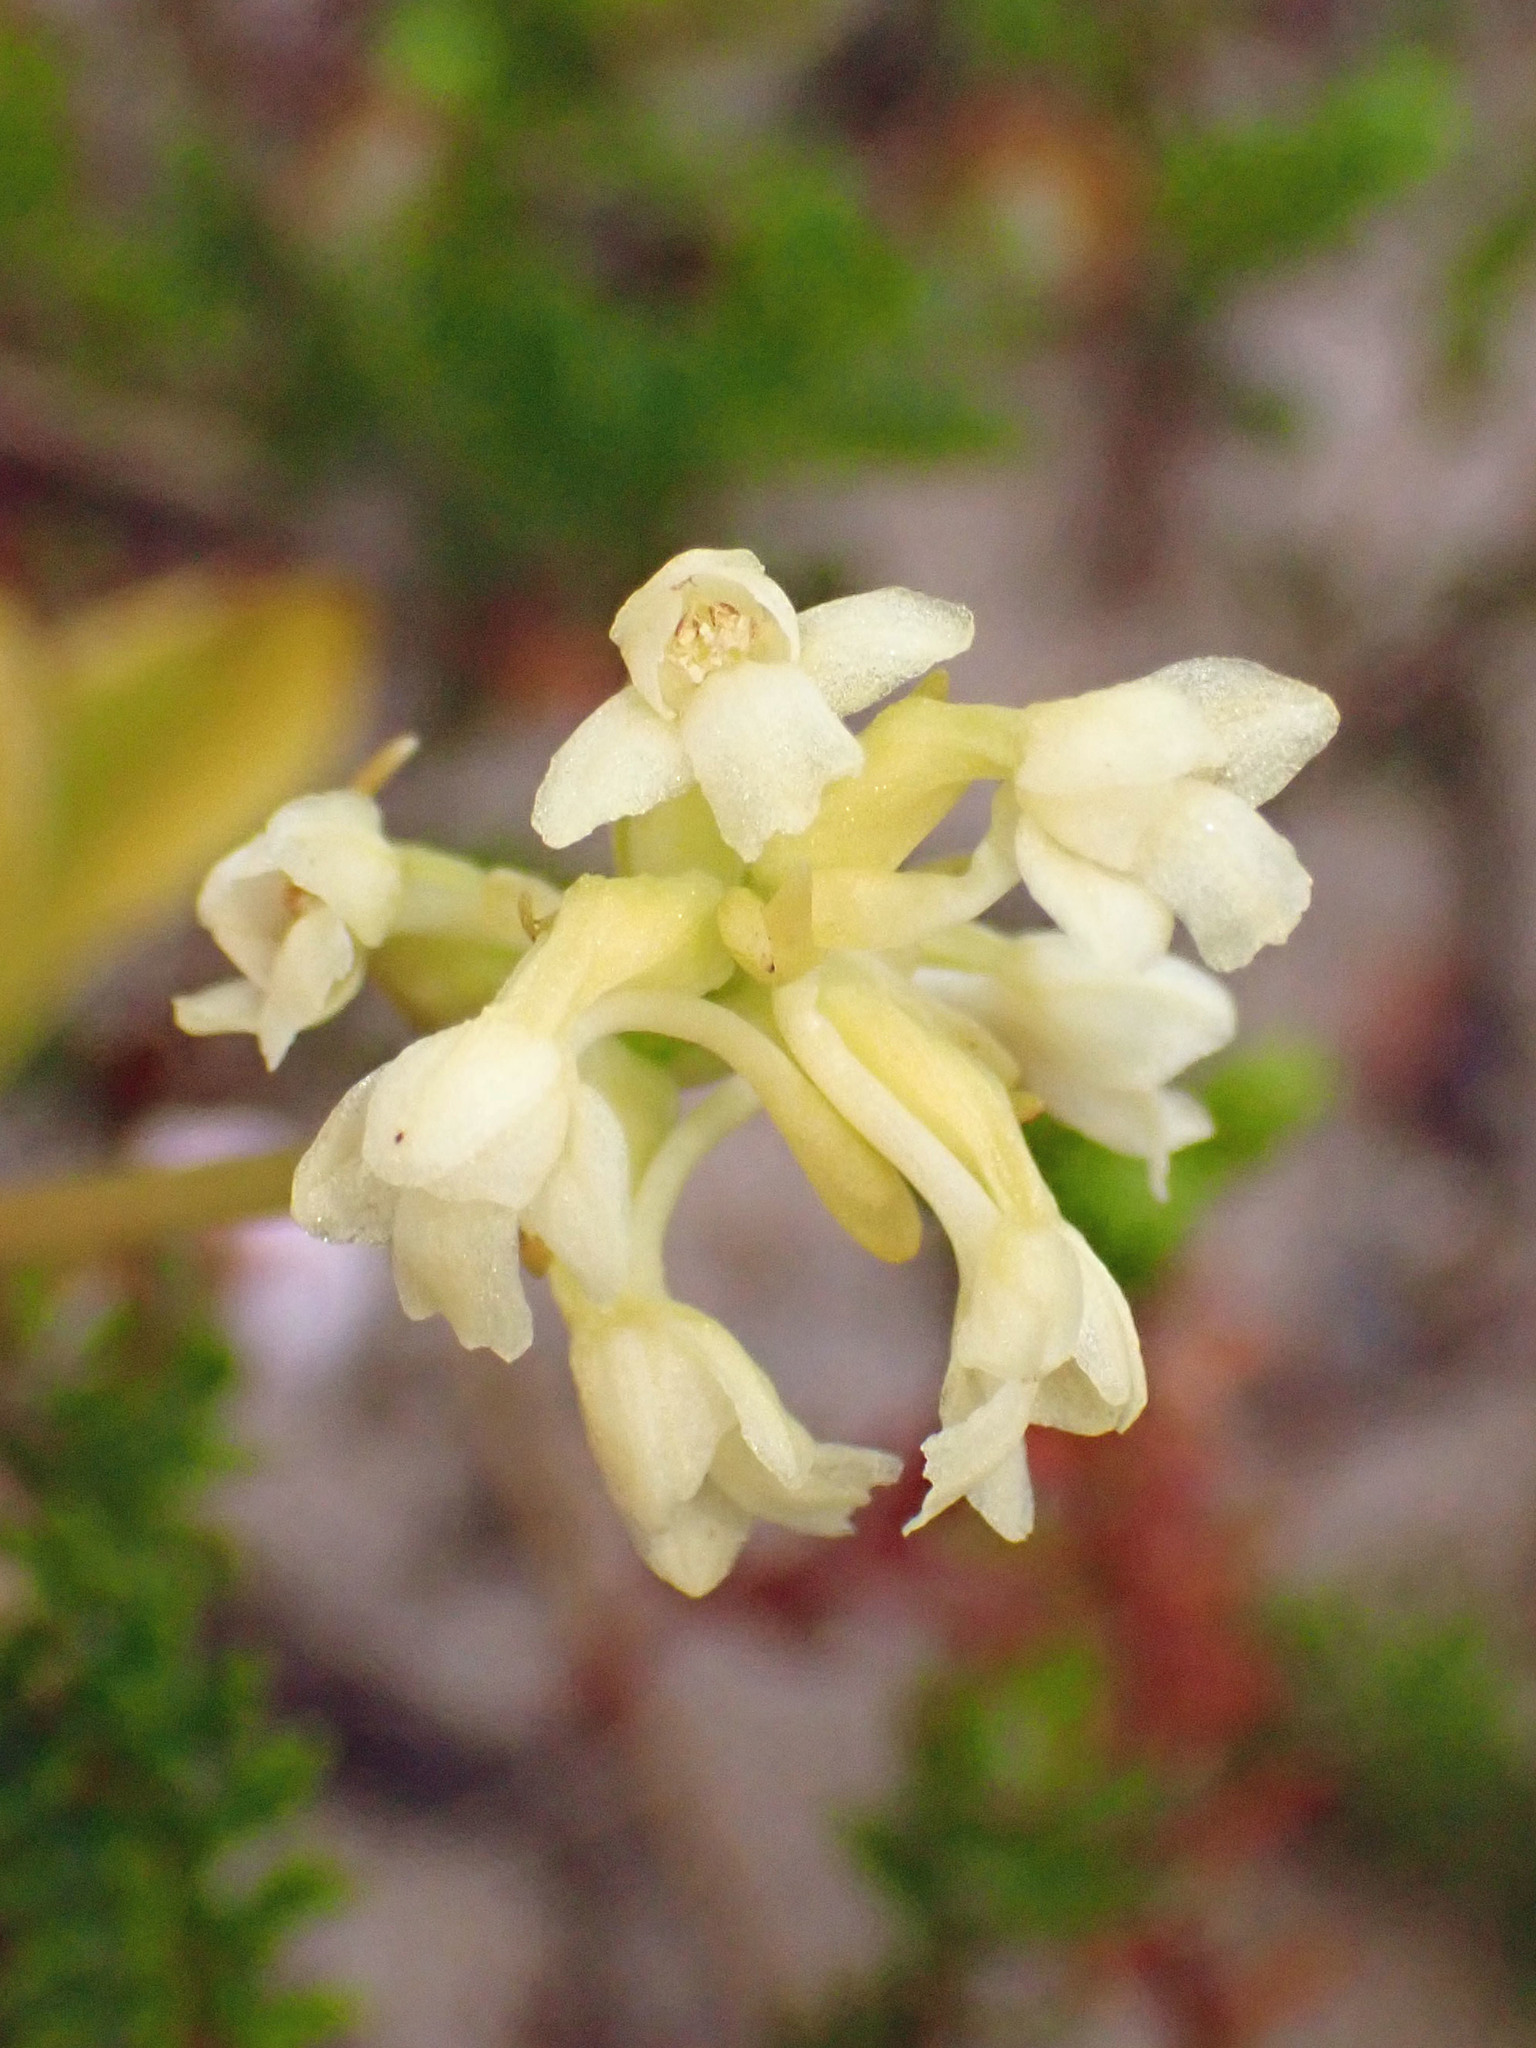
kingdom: Plantae
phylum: Tracheophyta
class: Liliopsida
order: Asparagales
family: Orchidaceae
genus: Platanthera
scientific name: Platanthera clavellata
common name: Club-spur orchid
